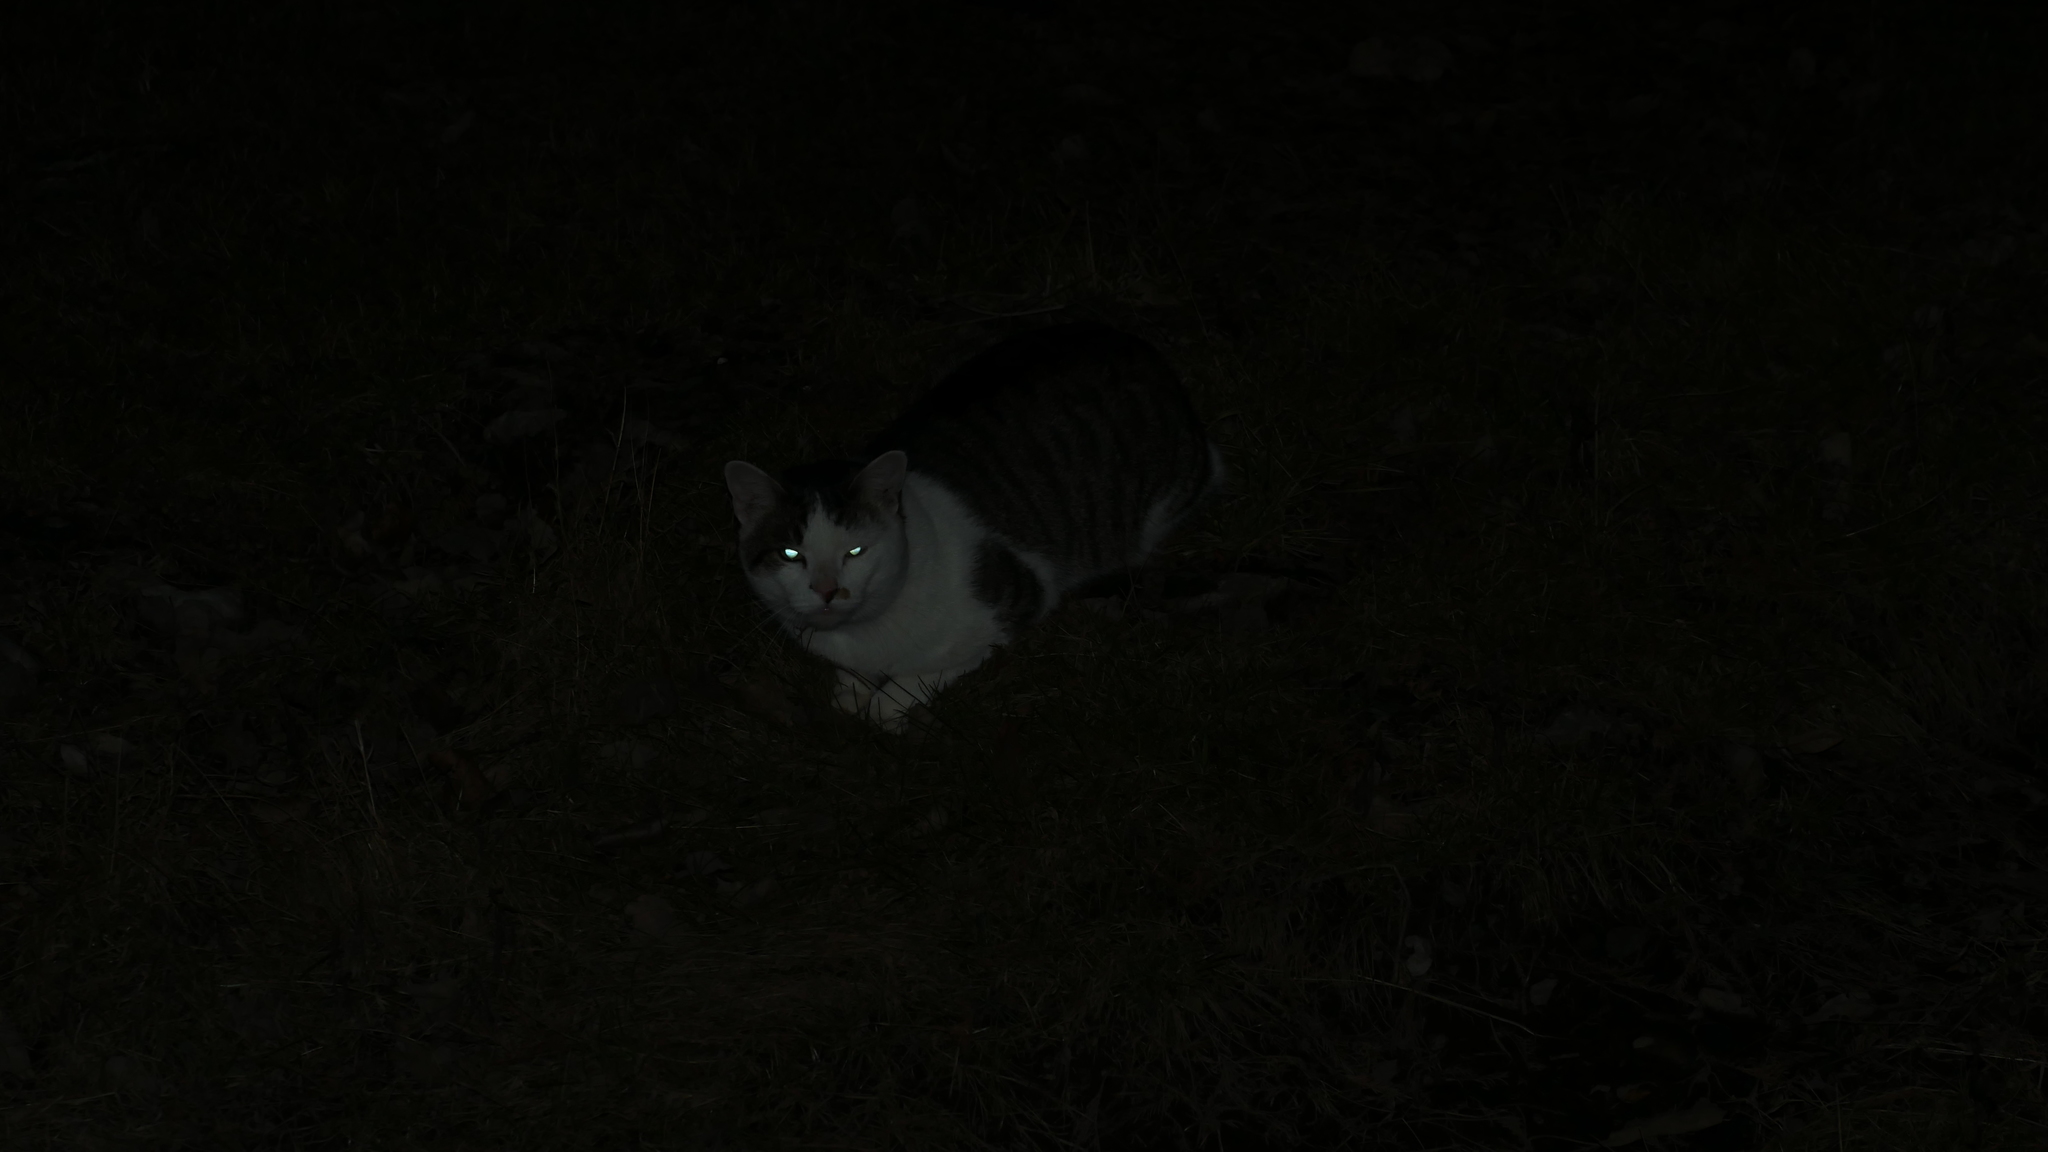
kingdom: Animalia
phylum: Chordata
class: Mammalia
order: Carnivora
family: Felidae
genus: Felis
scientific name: Felis catus
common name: Domestic cat
